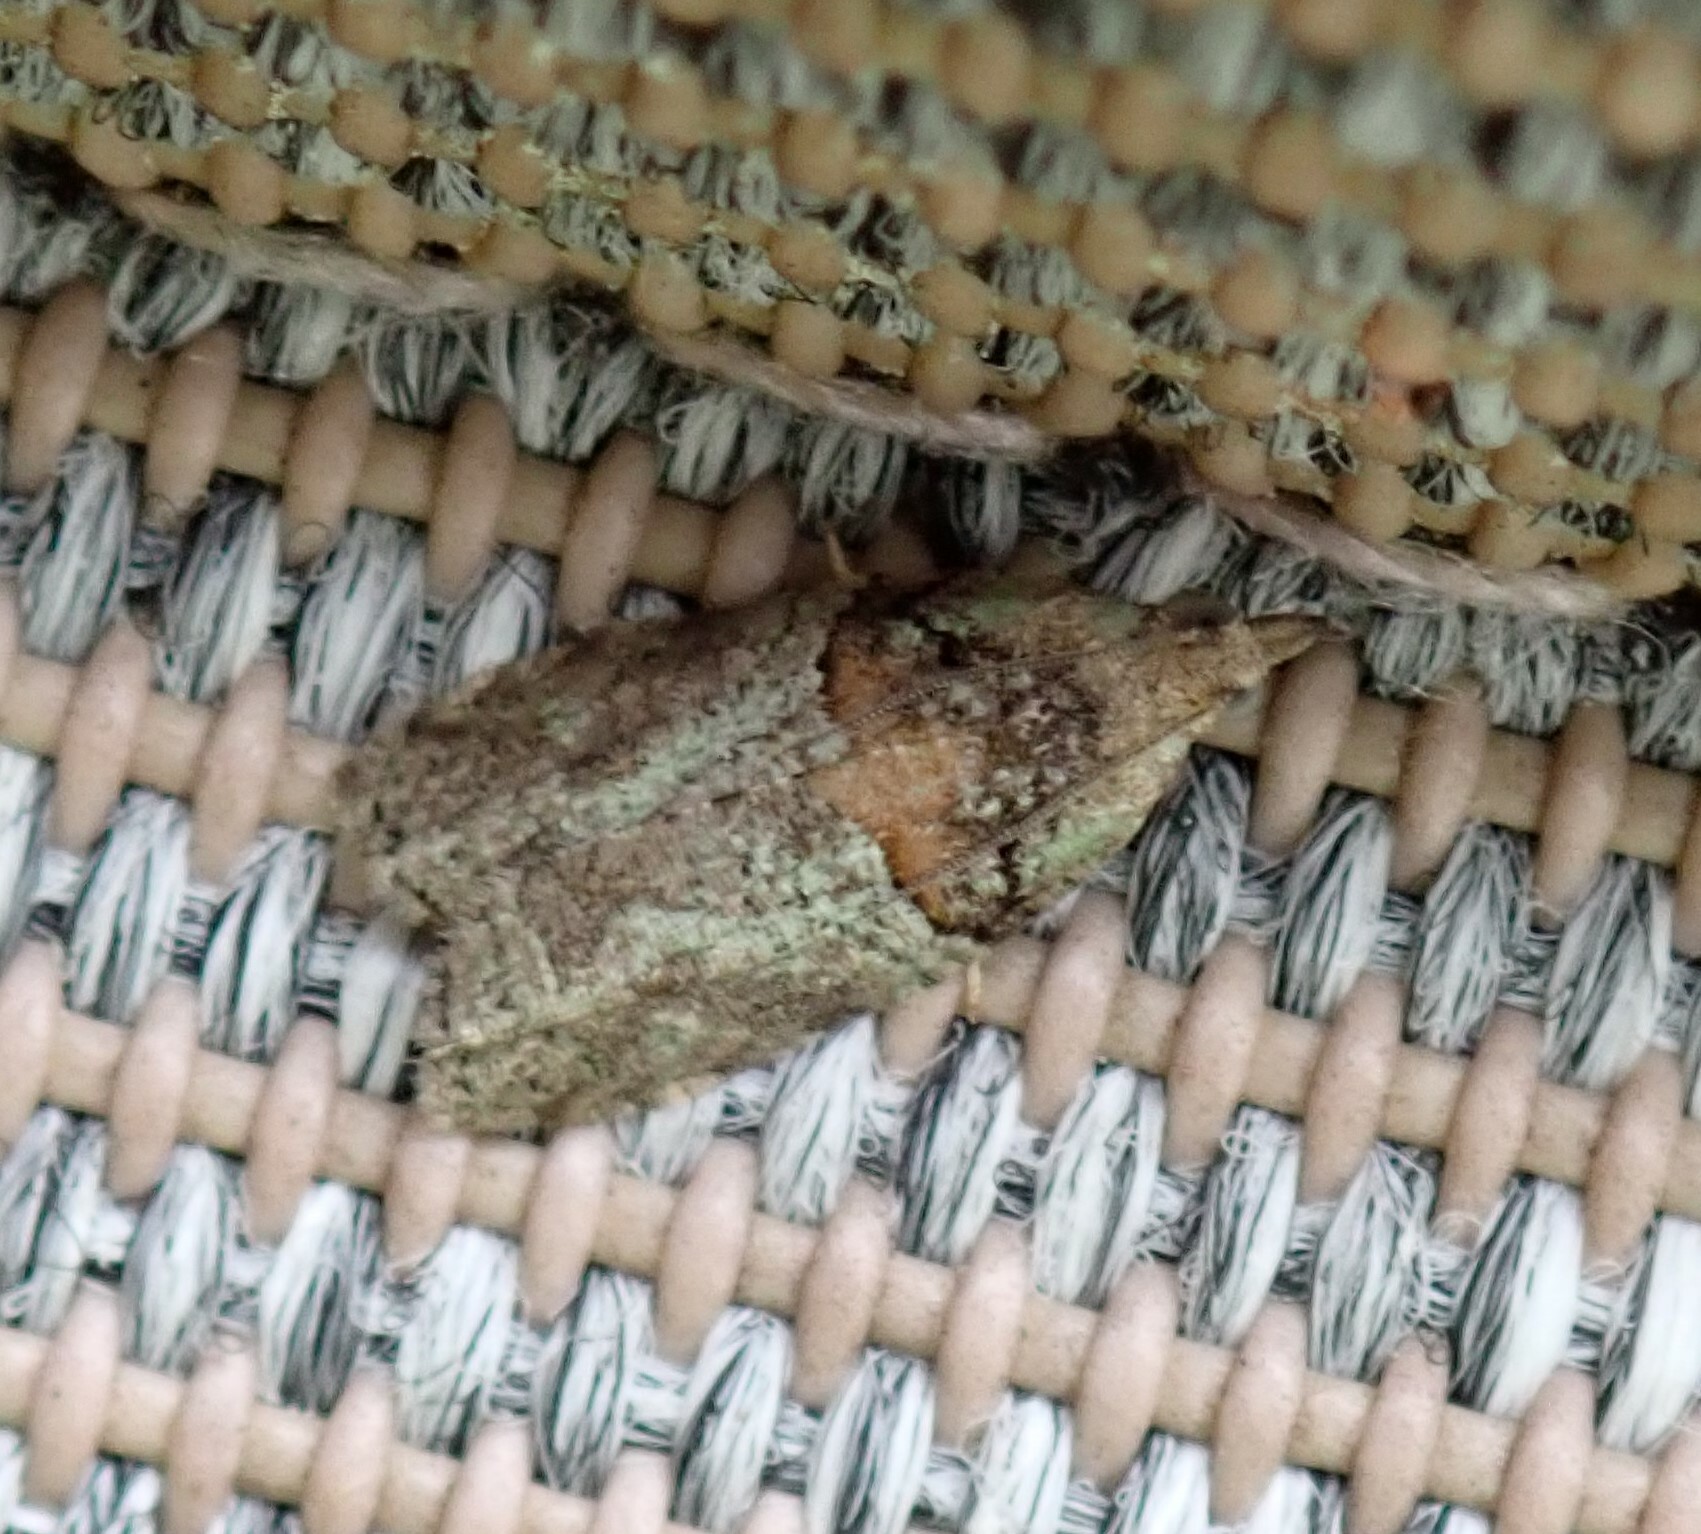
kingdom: Animalia
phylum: Arthropoda
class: Insecta
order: Lepidoptera
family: Tortricidae
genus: Epinotia
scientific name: Epinotia medioviridana
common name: Raspberry leaf-roller moth
